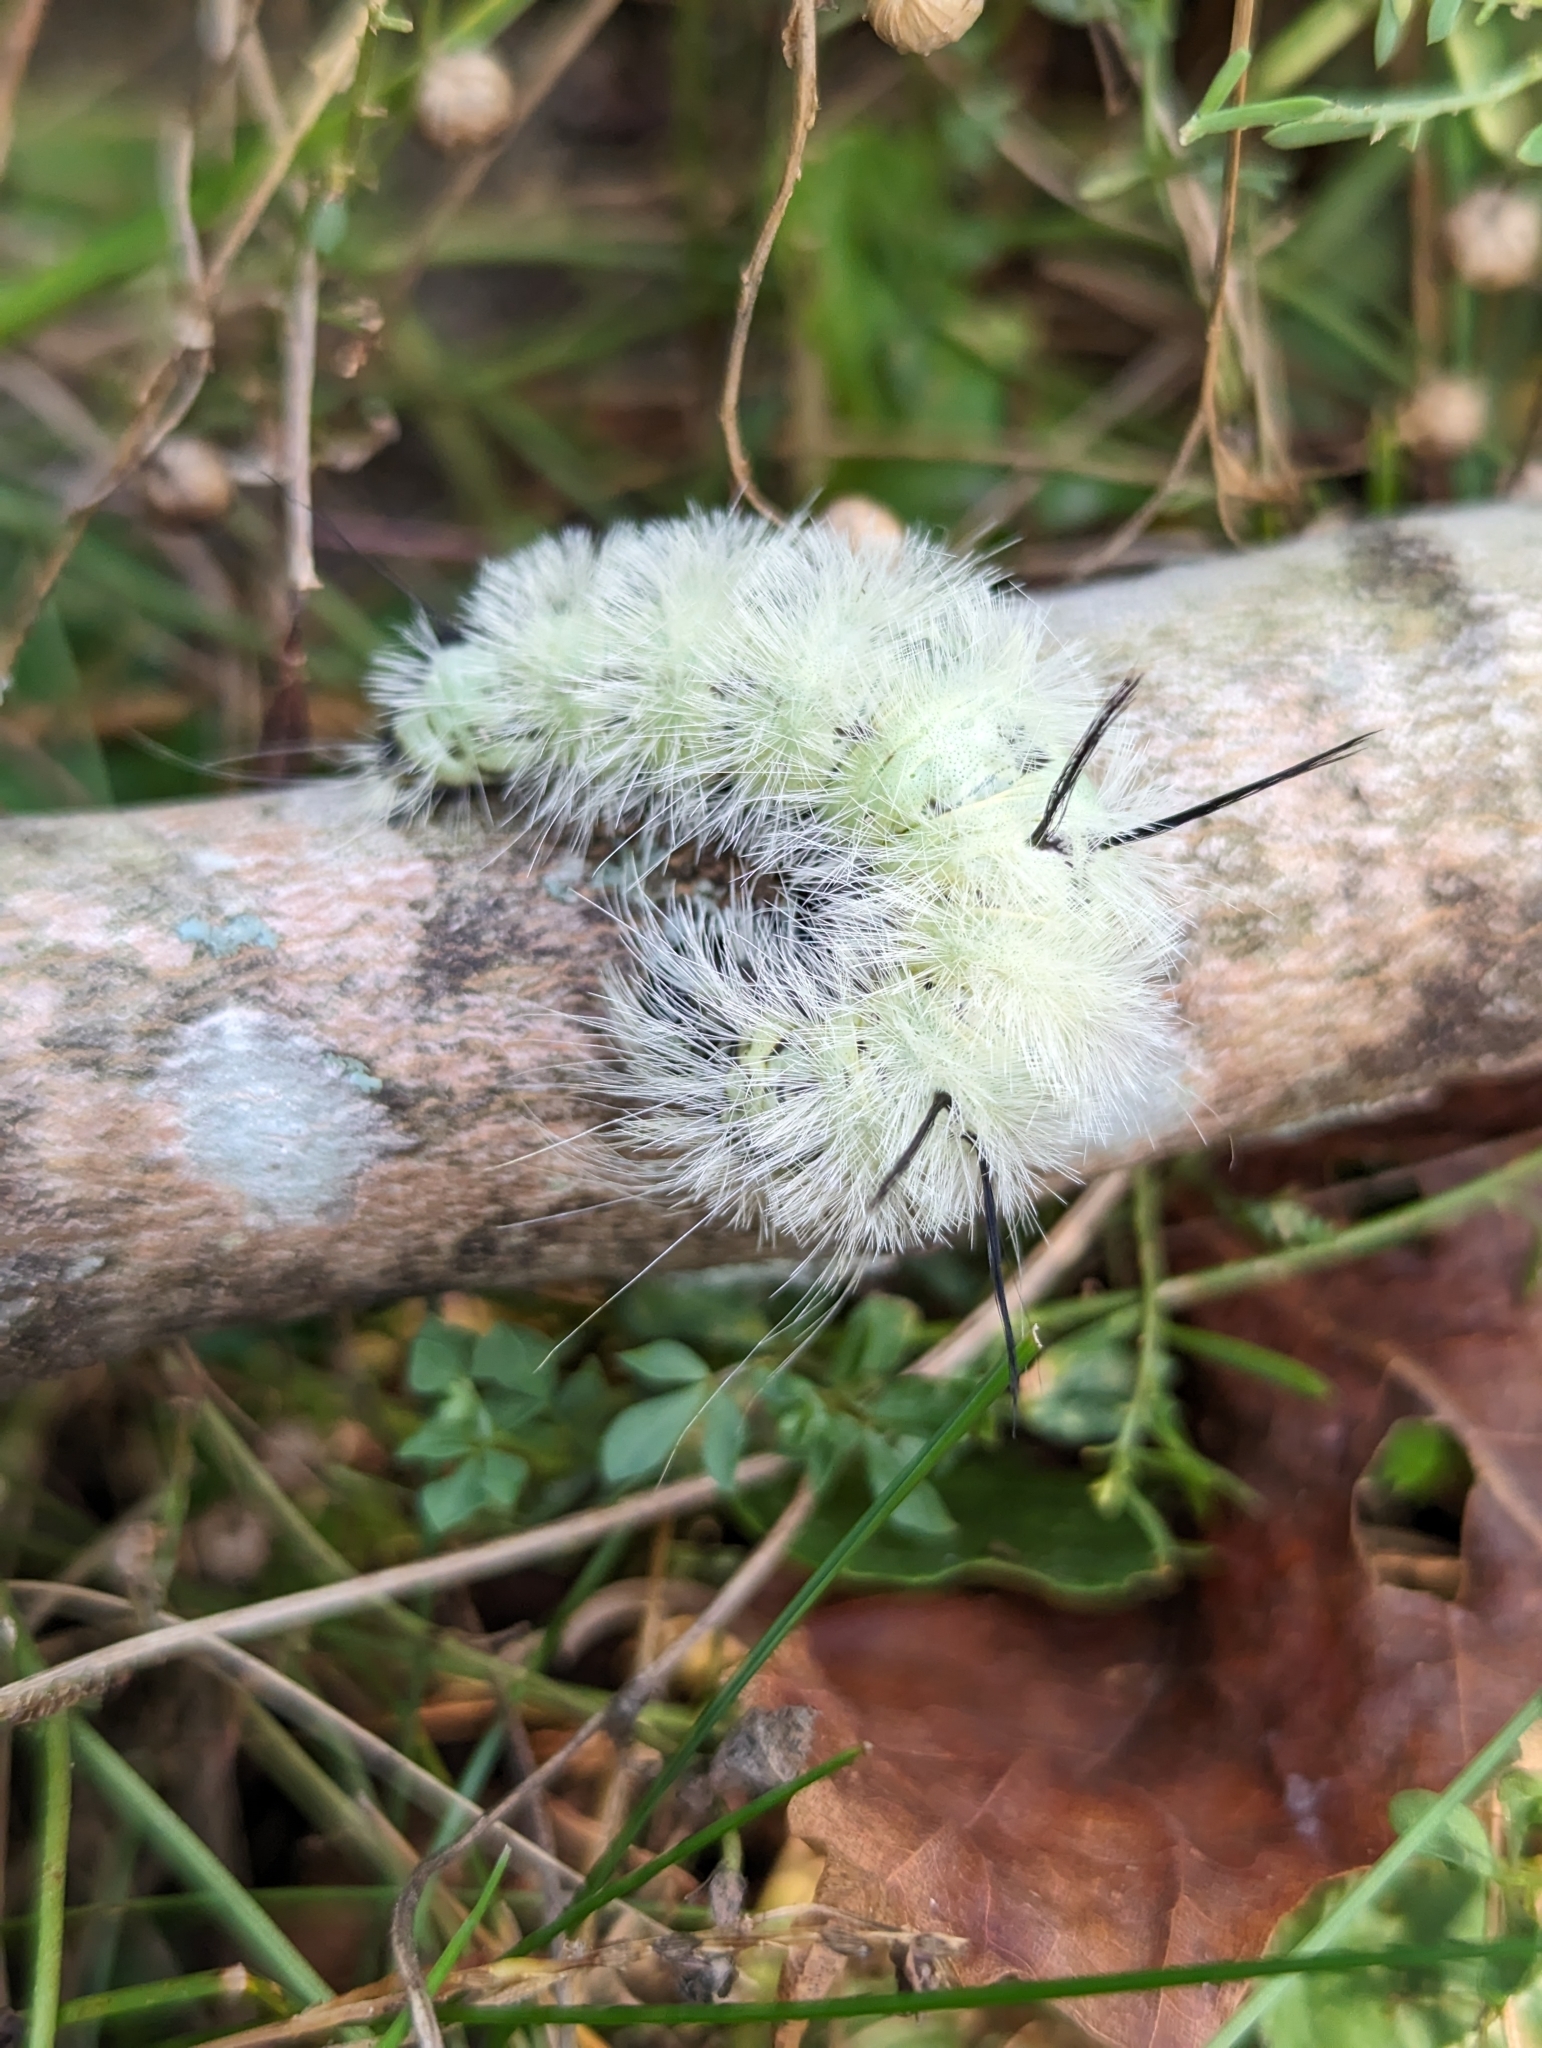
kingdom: Animalia
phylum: Arthropoda
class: Insecta
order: Lepidoptera
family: Noctuidae
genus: Acronicta
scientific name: Acronicta americana
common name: American dagger
